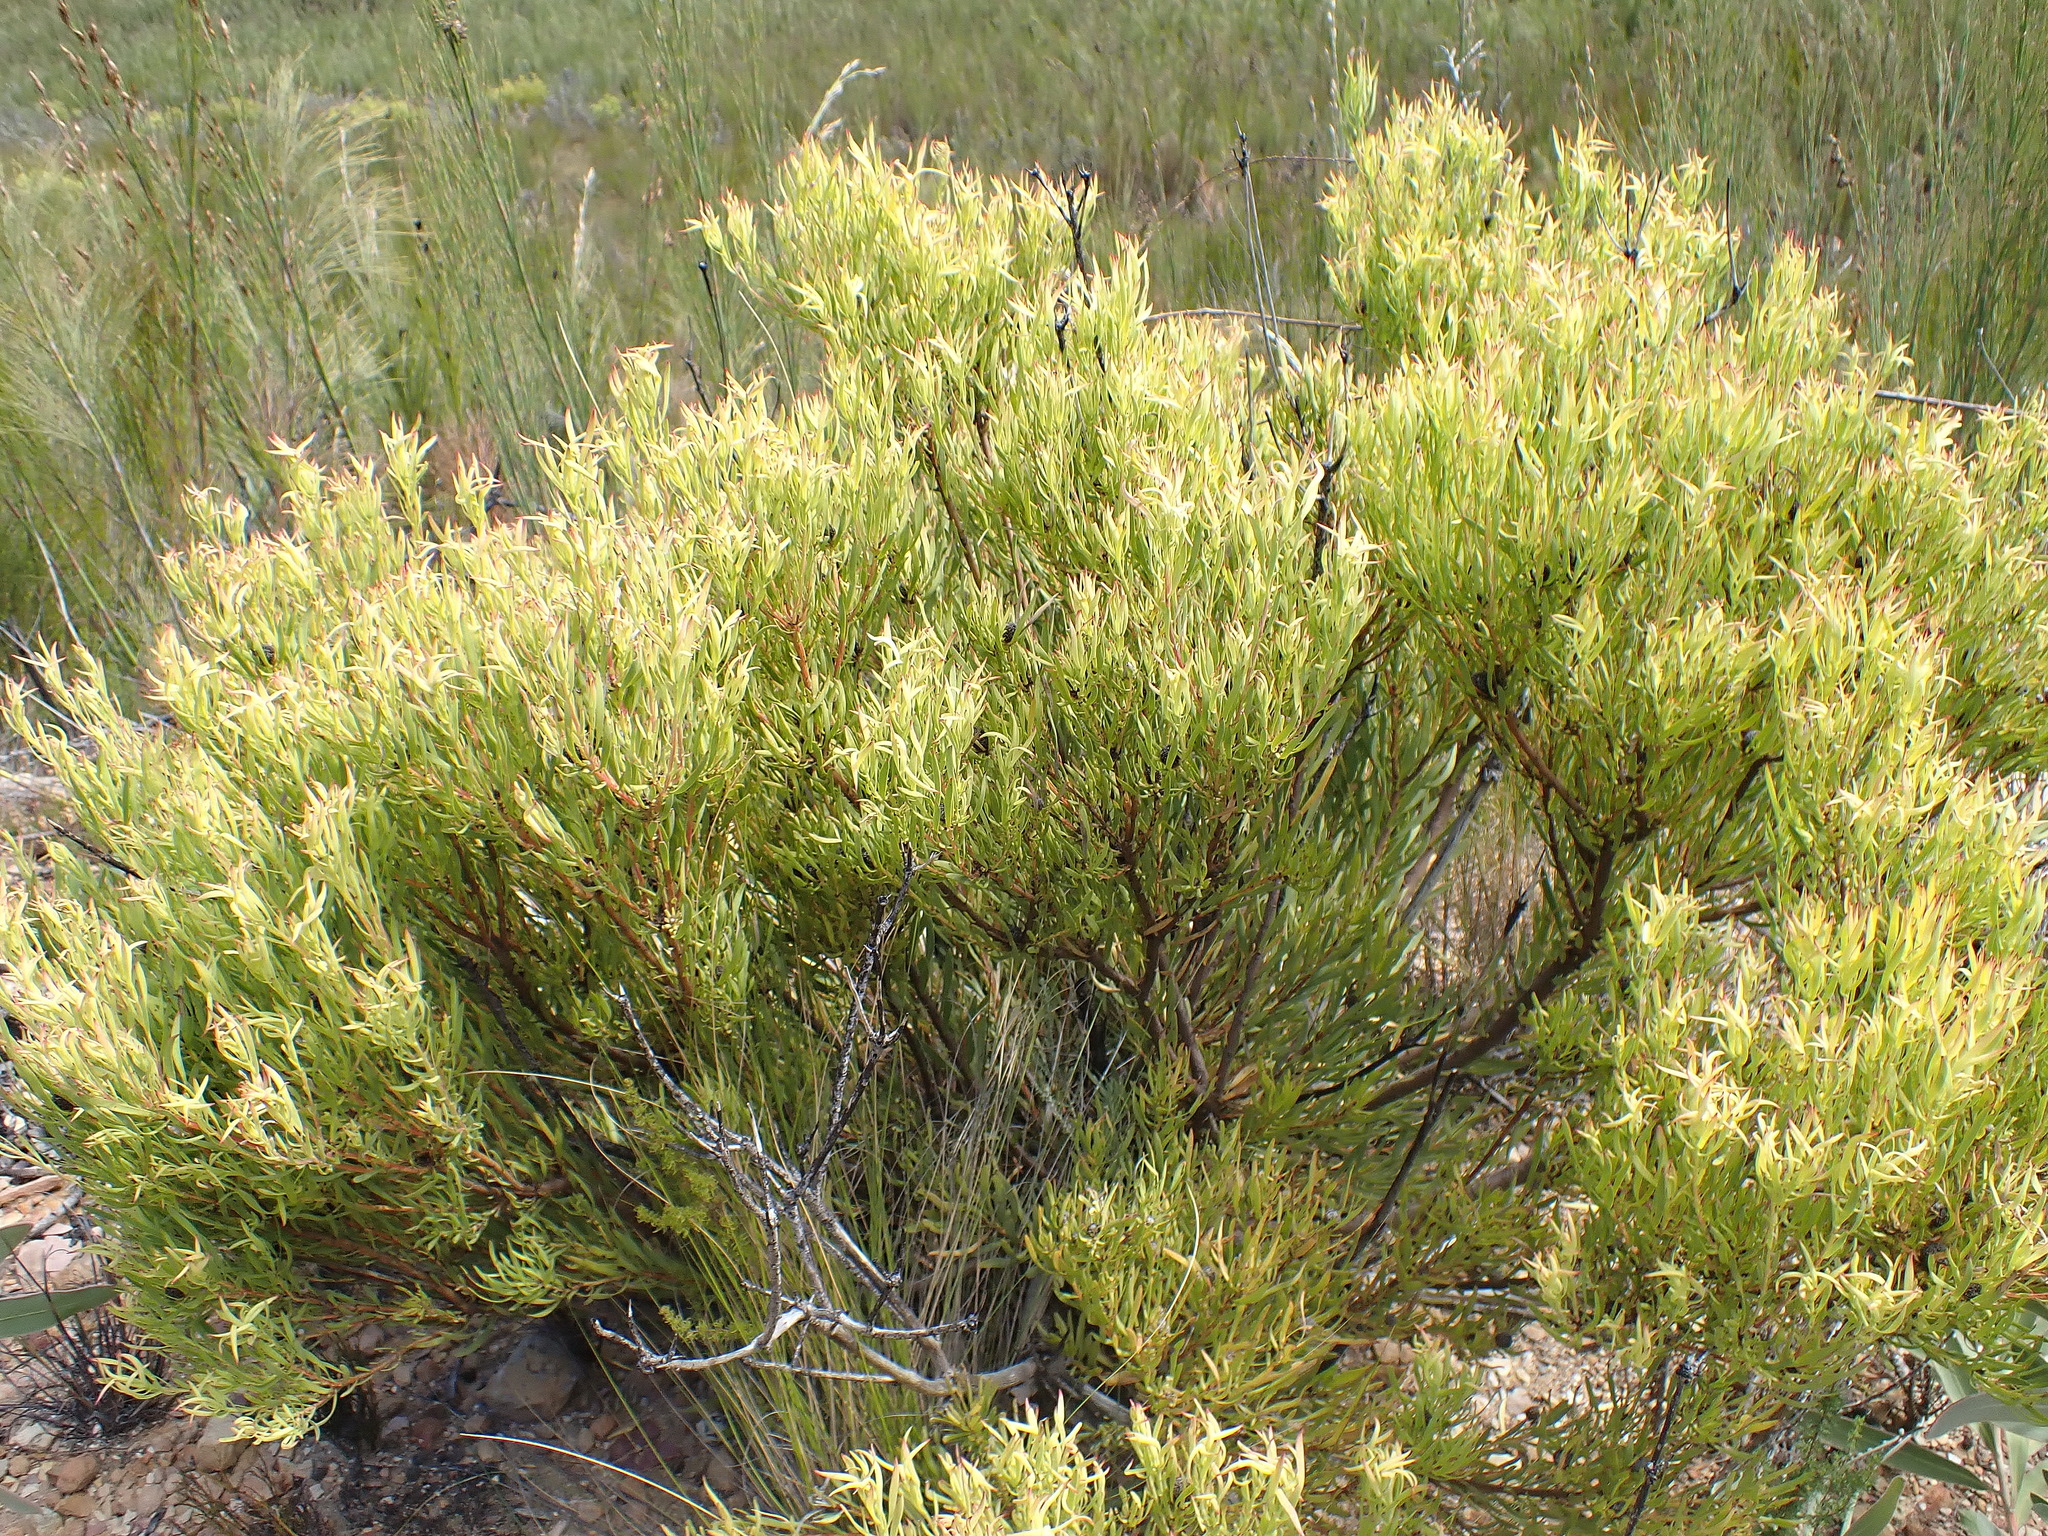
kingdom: Plantae
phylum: Tracheophyta
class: Magnoliopsida
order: Proteales
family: Proteaceae
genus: Leucadendron
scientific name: Leucadendron salignum
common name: Common sunshine conebush
